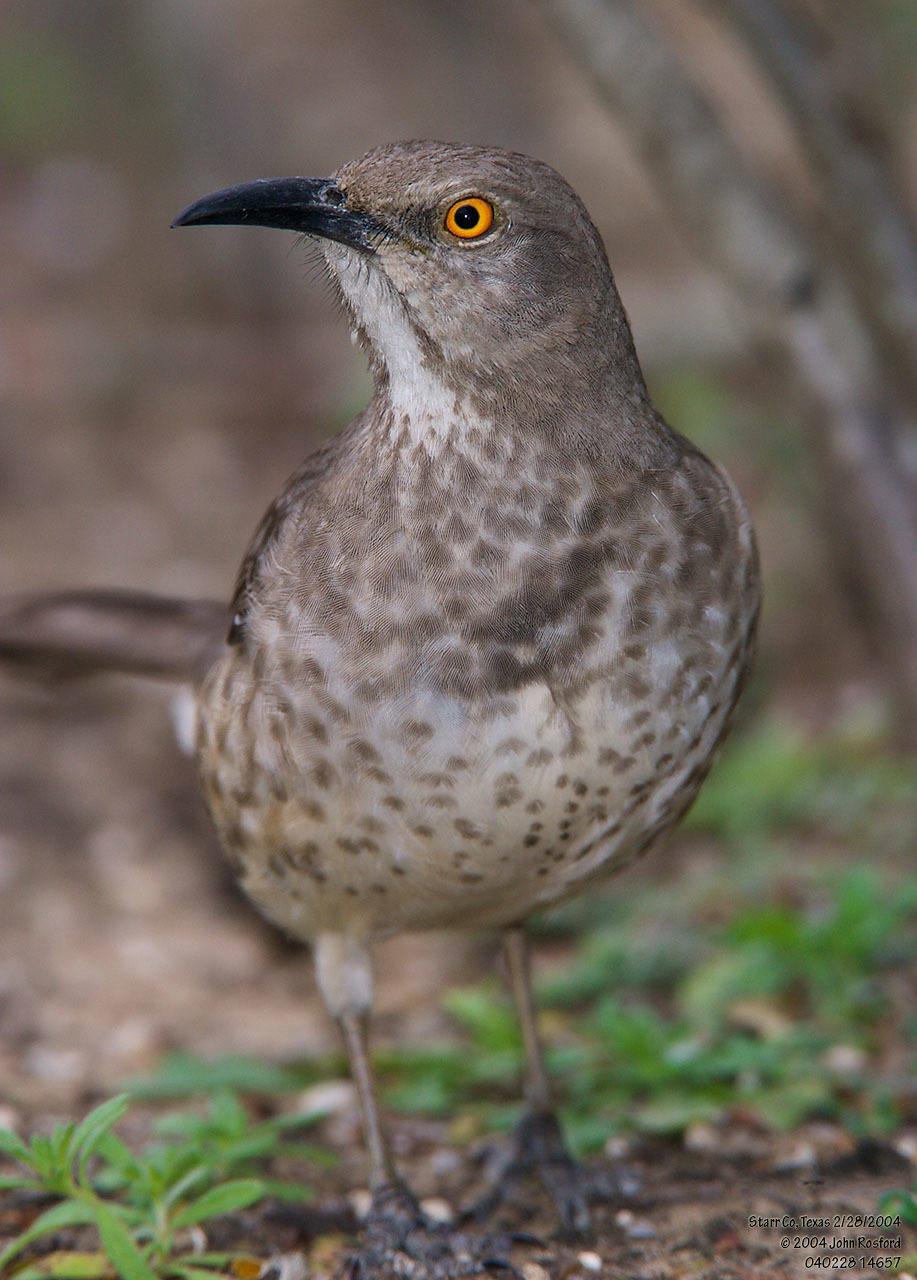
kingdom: Animalia
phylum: Chordata
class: Aves
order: Passeriformes
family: Mimidae
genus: Toxostoma
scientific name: Toxostoma curvirostre
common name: Curve-billed thrasher
